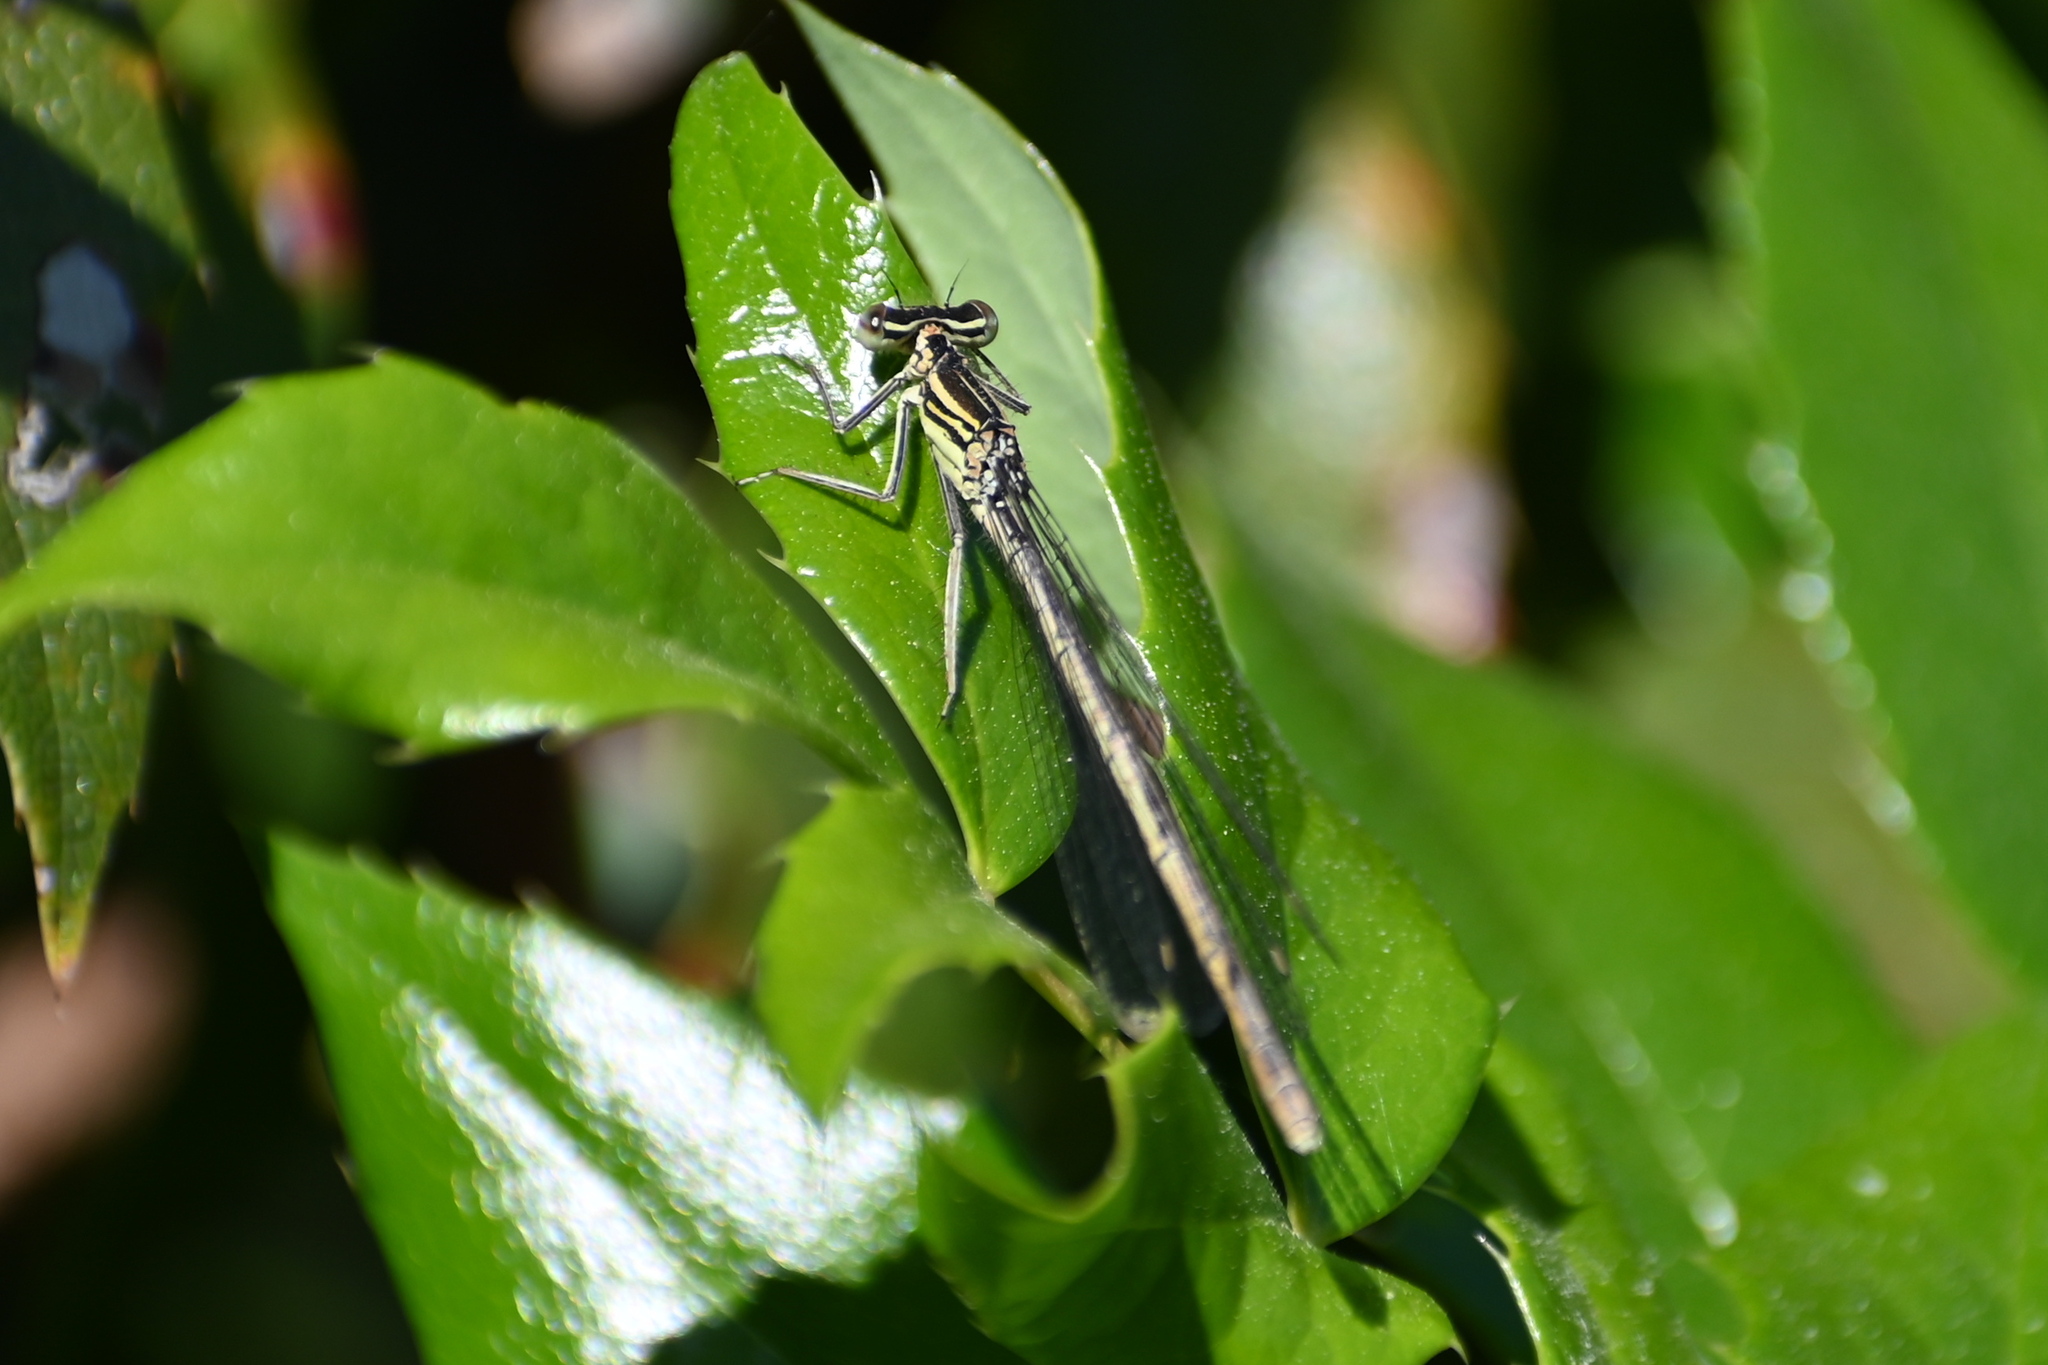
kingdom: Animalia
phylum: Arthropoda
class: Insecta
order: Odonata
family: Platycnemididae
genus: Platycnemis
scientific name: Platycnemis pennipes
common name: White-legged damselfly
